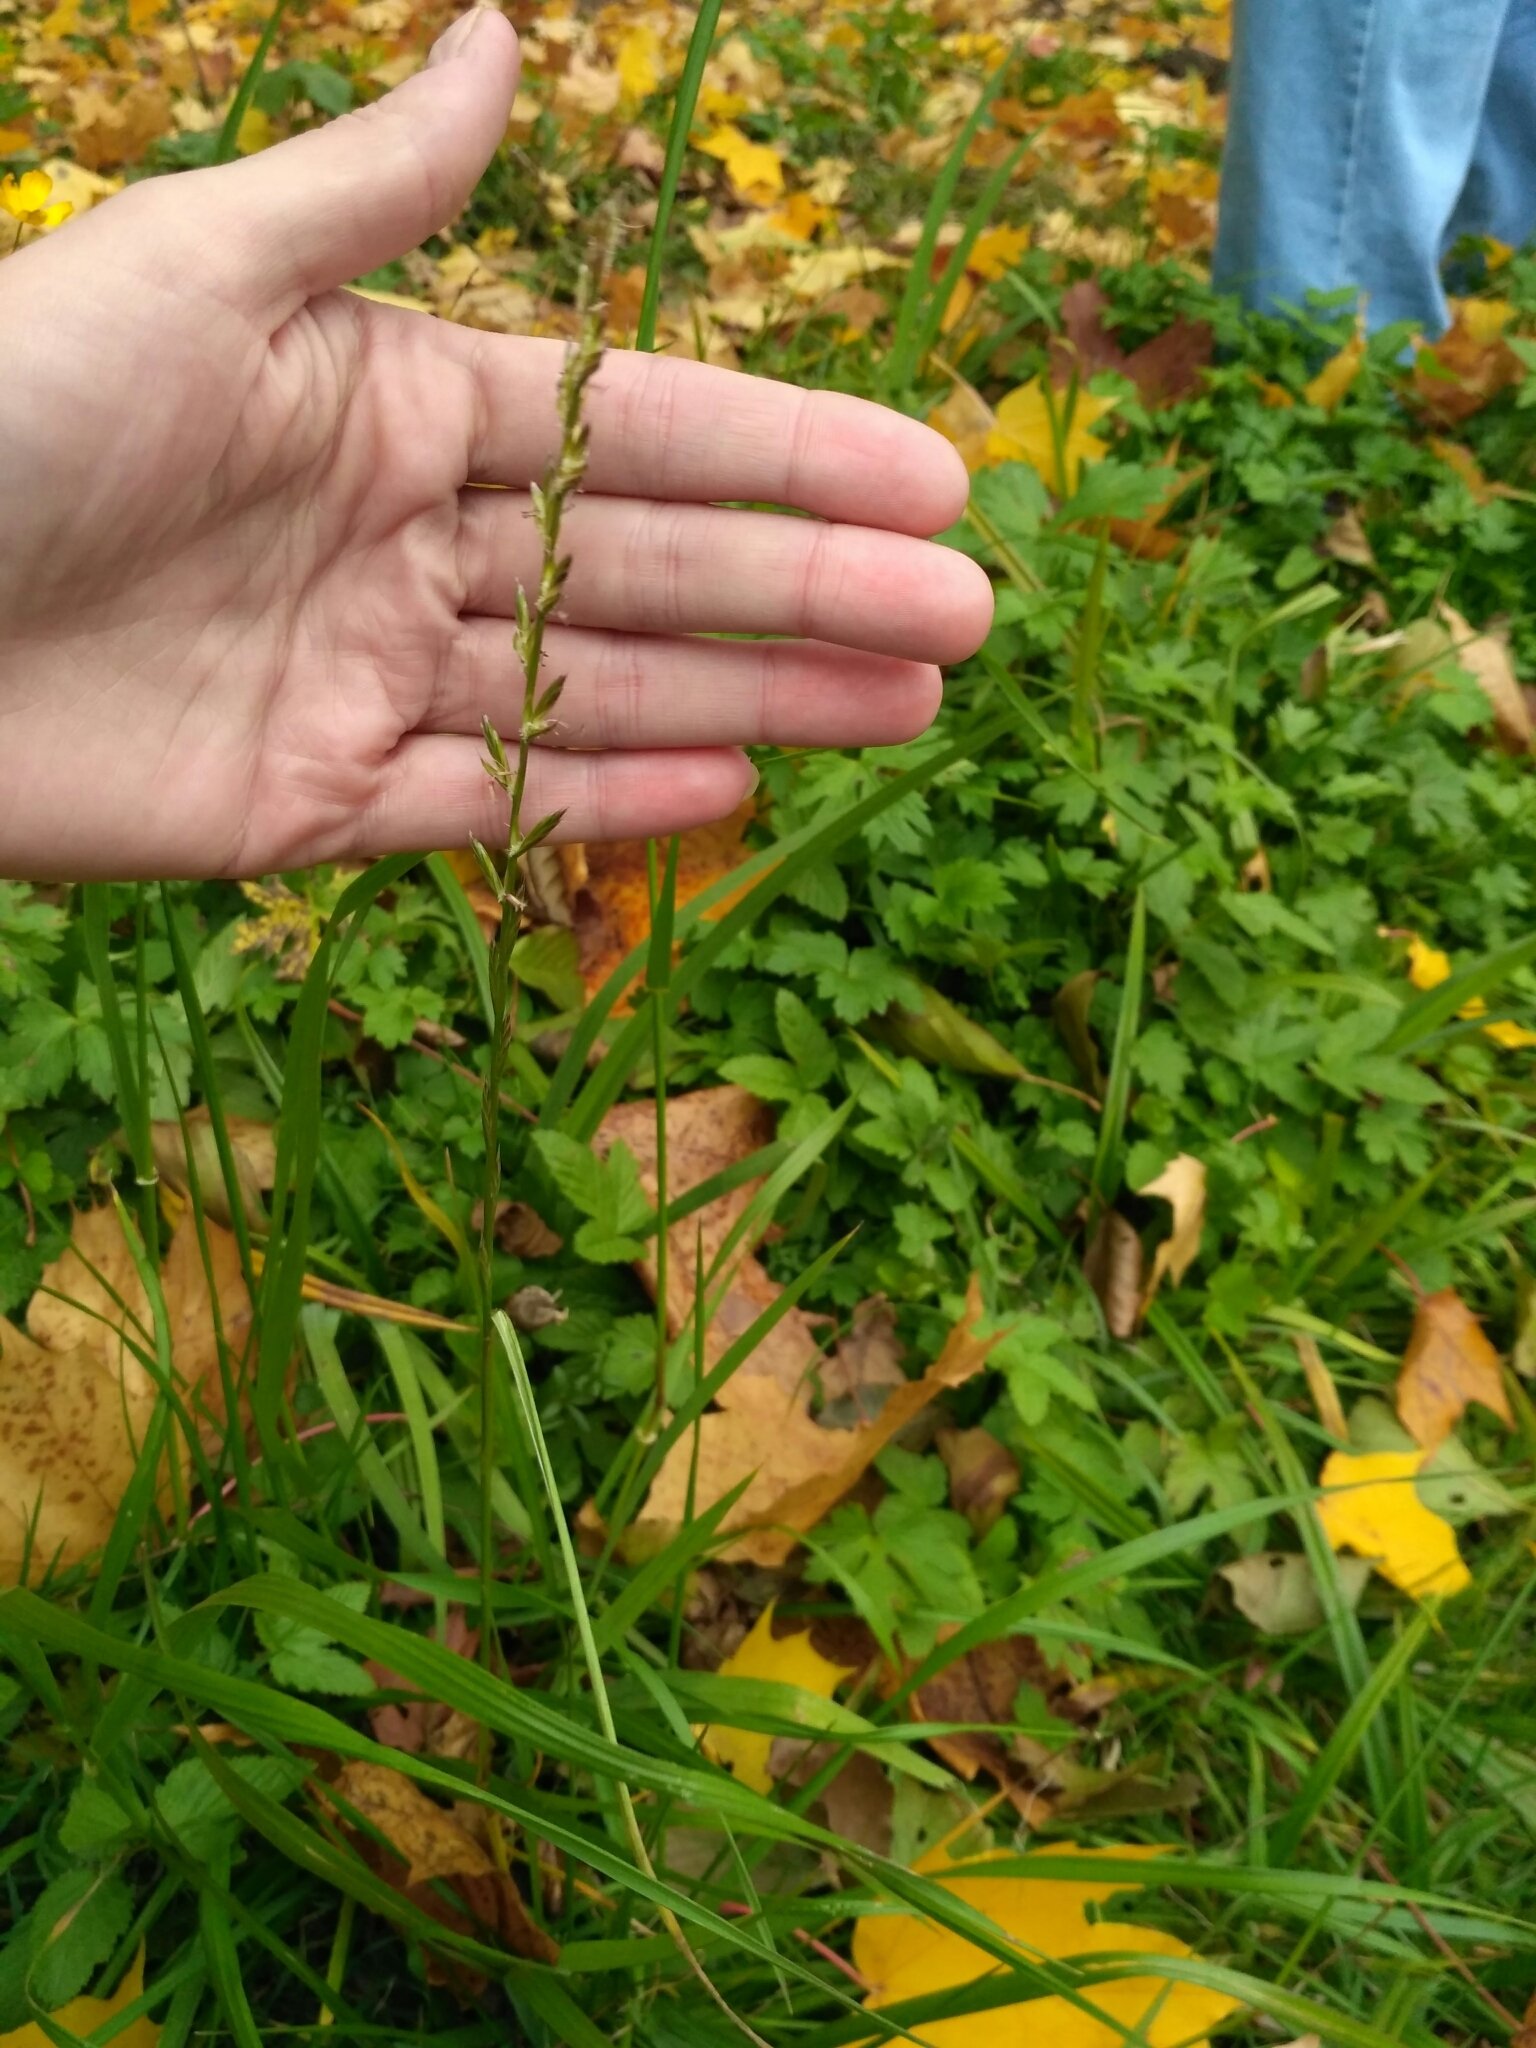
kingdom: Plantae
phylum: Tracheophyta
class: Liliopsida
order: Poales
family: Poaceae
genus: Lolium
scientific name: Lolium perenne
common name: Perennial ryegrass
